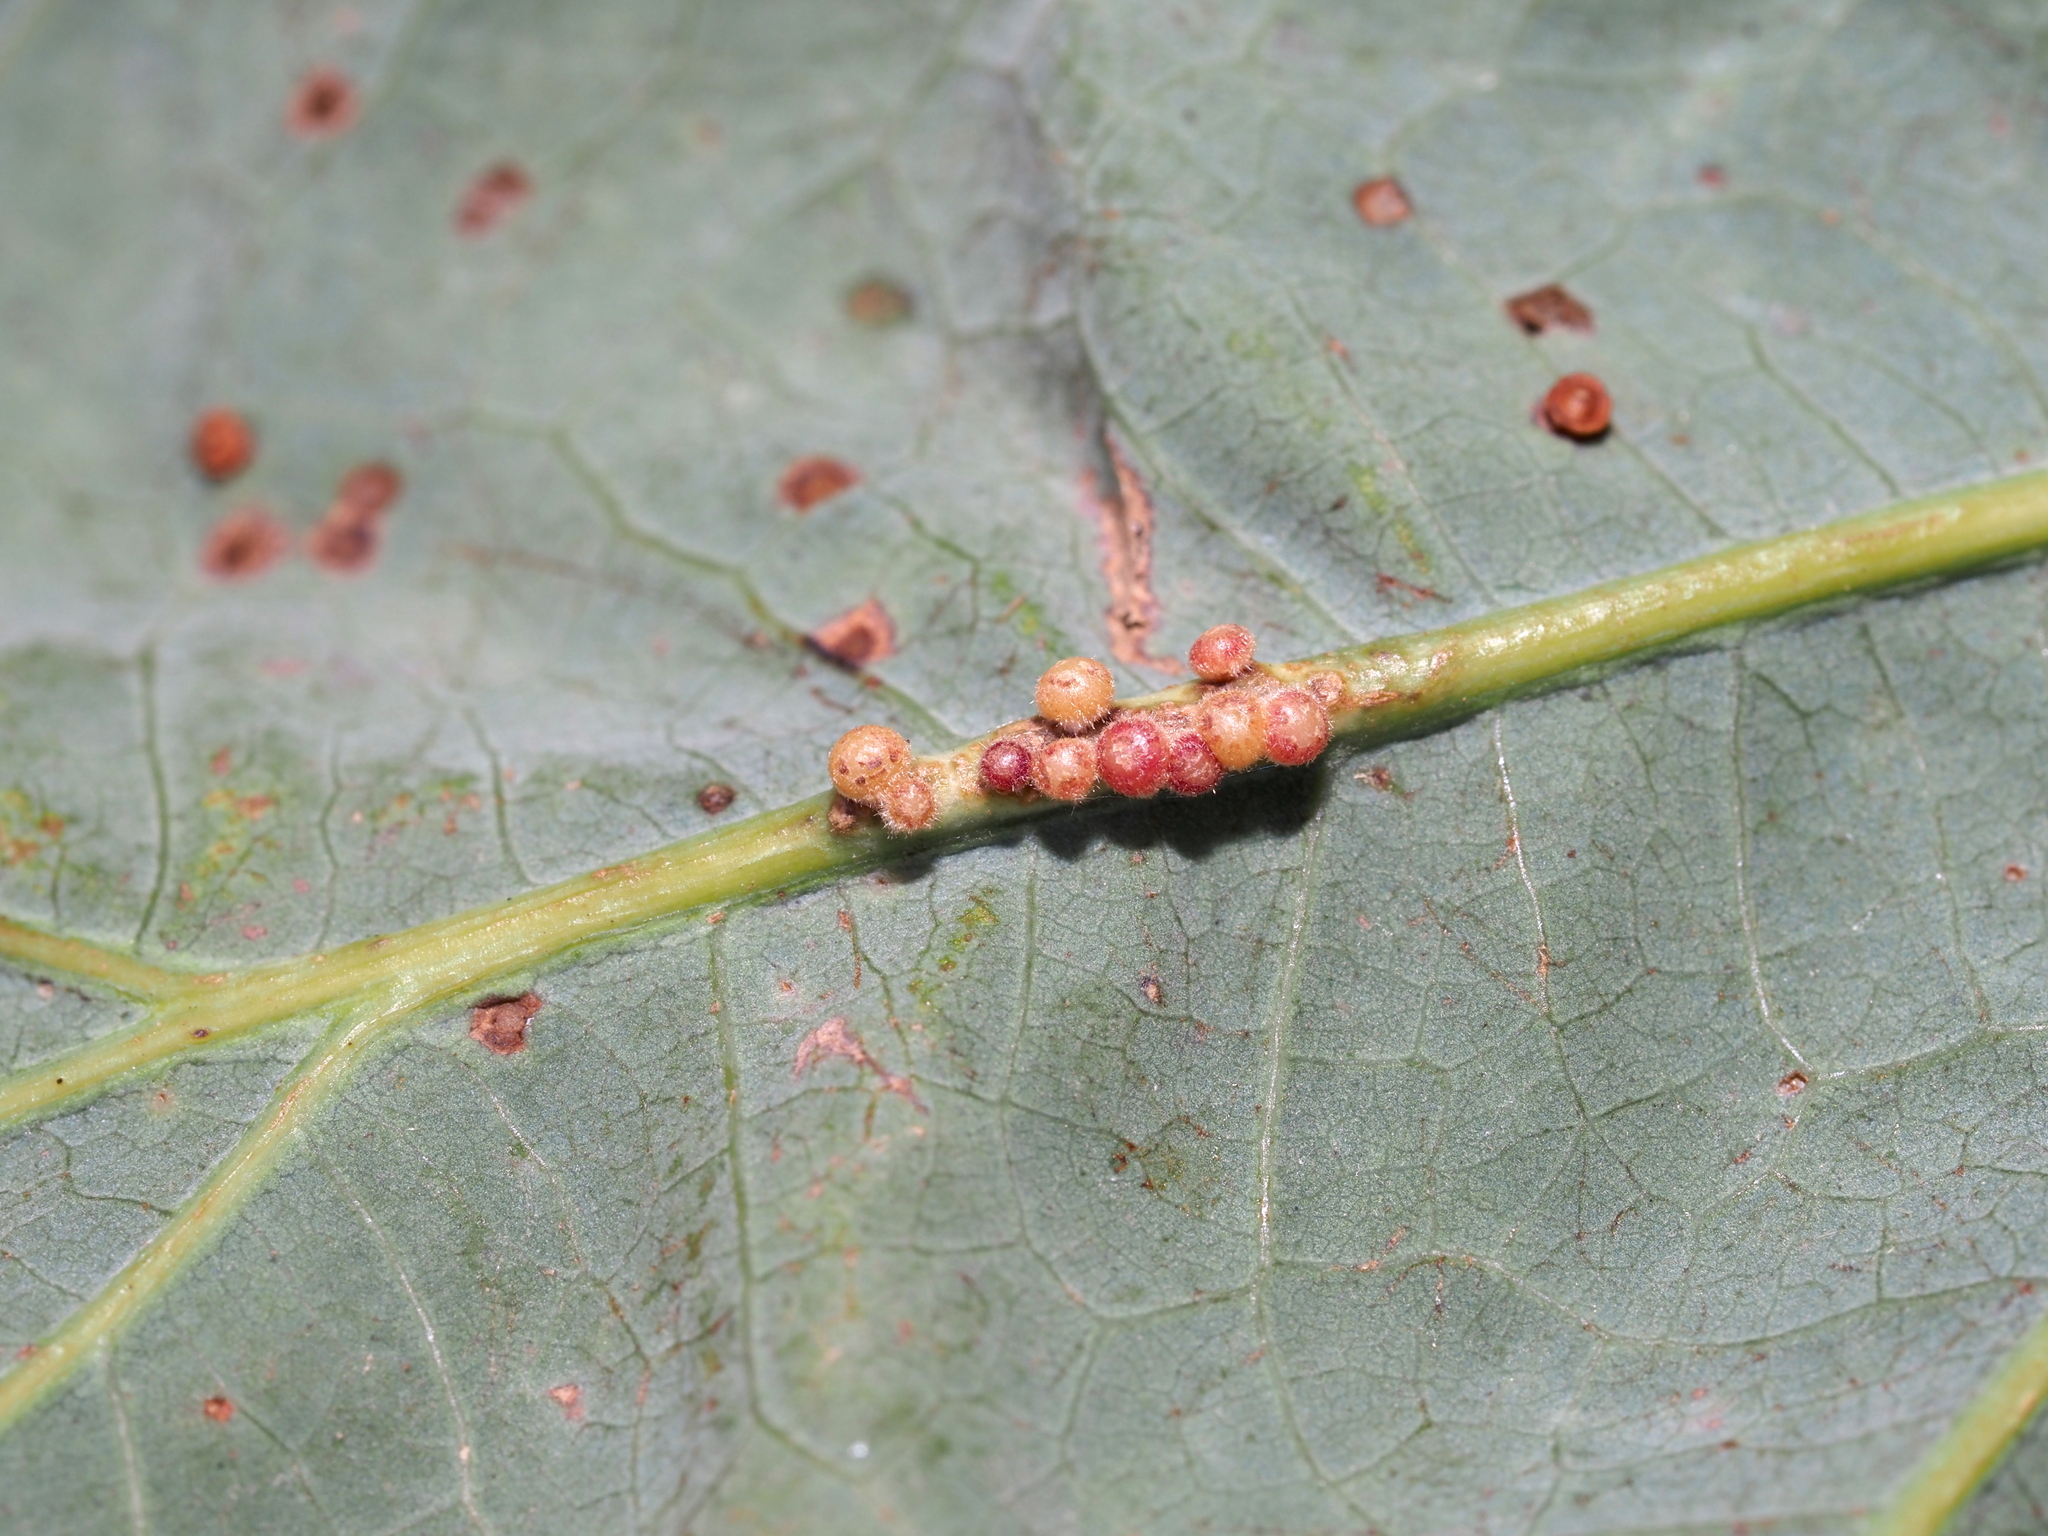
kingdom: Animalia
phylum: Arthropoda
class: Insecta
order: Hymenoptera
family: Cynipidae
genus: Andricus
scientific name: Andricus
